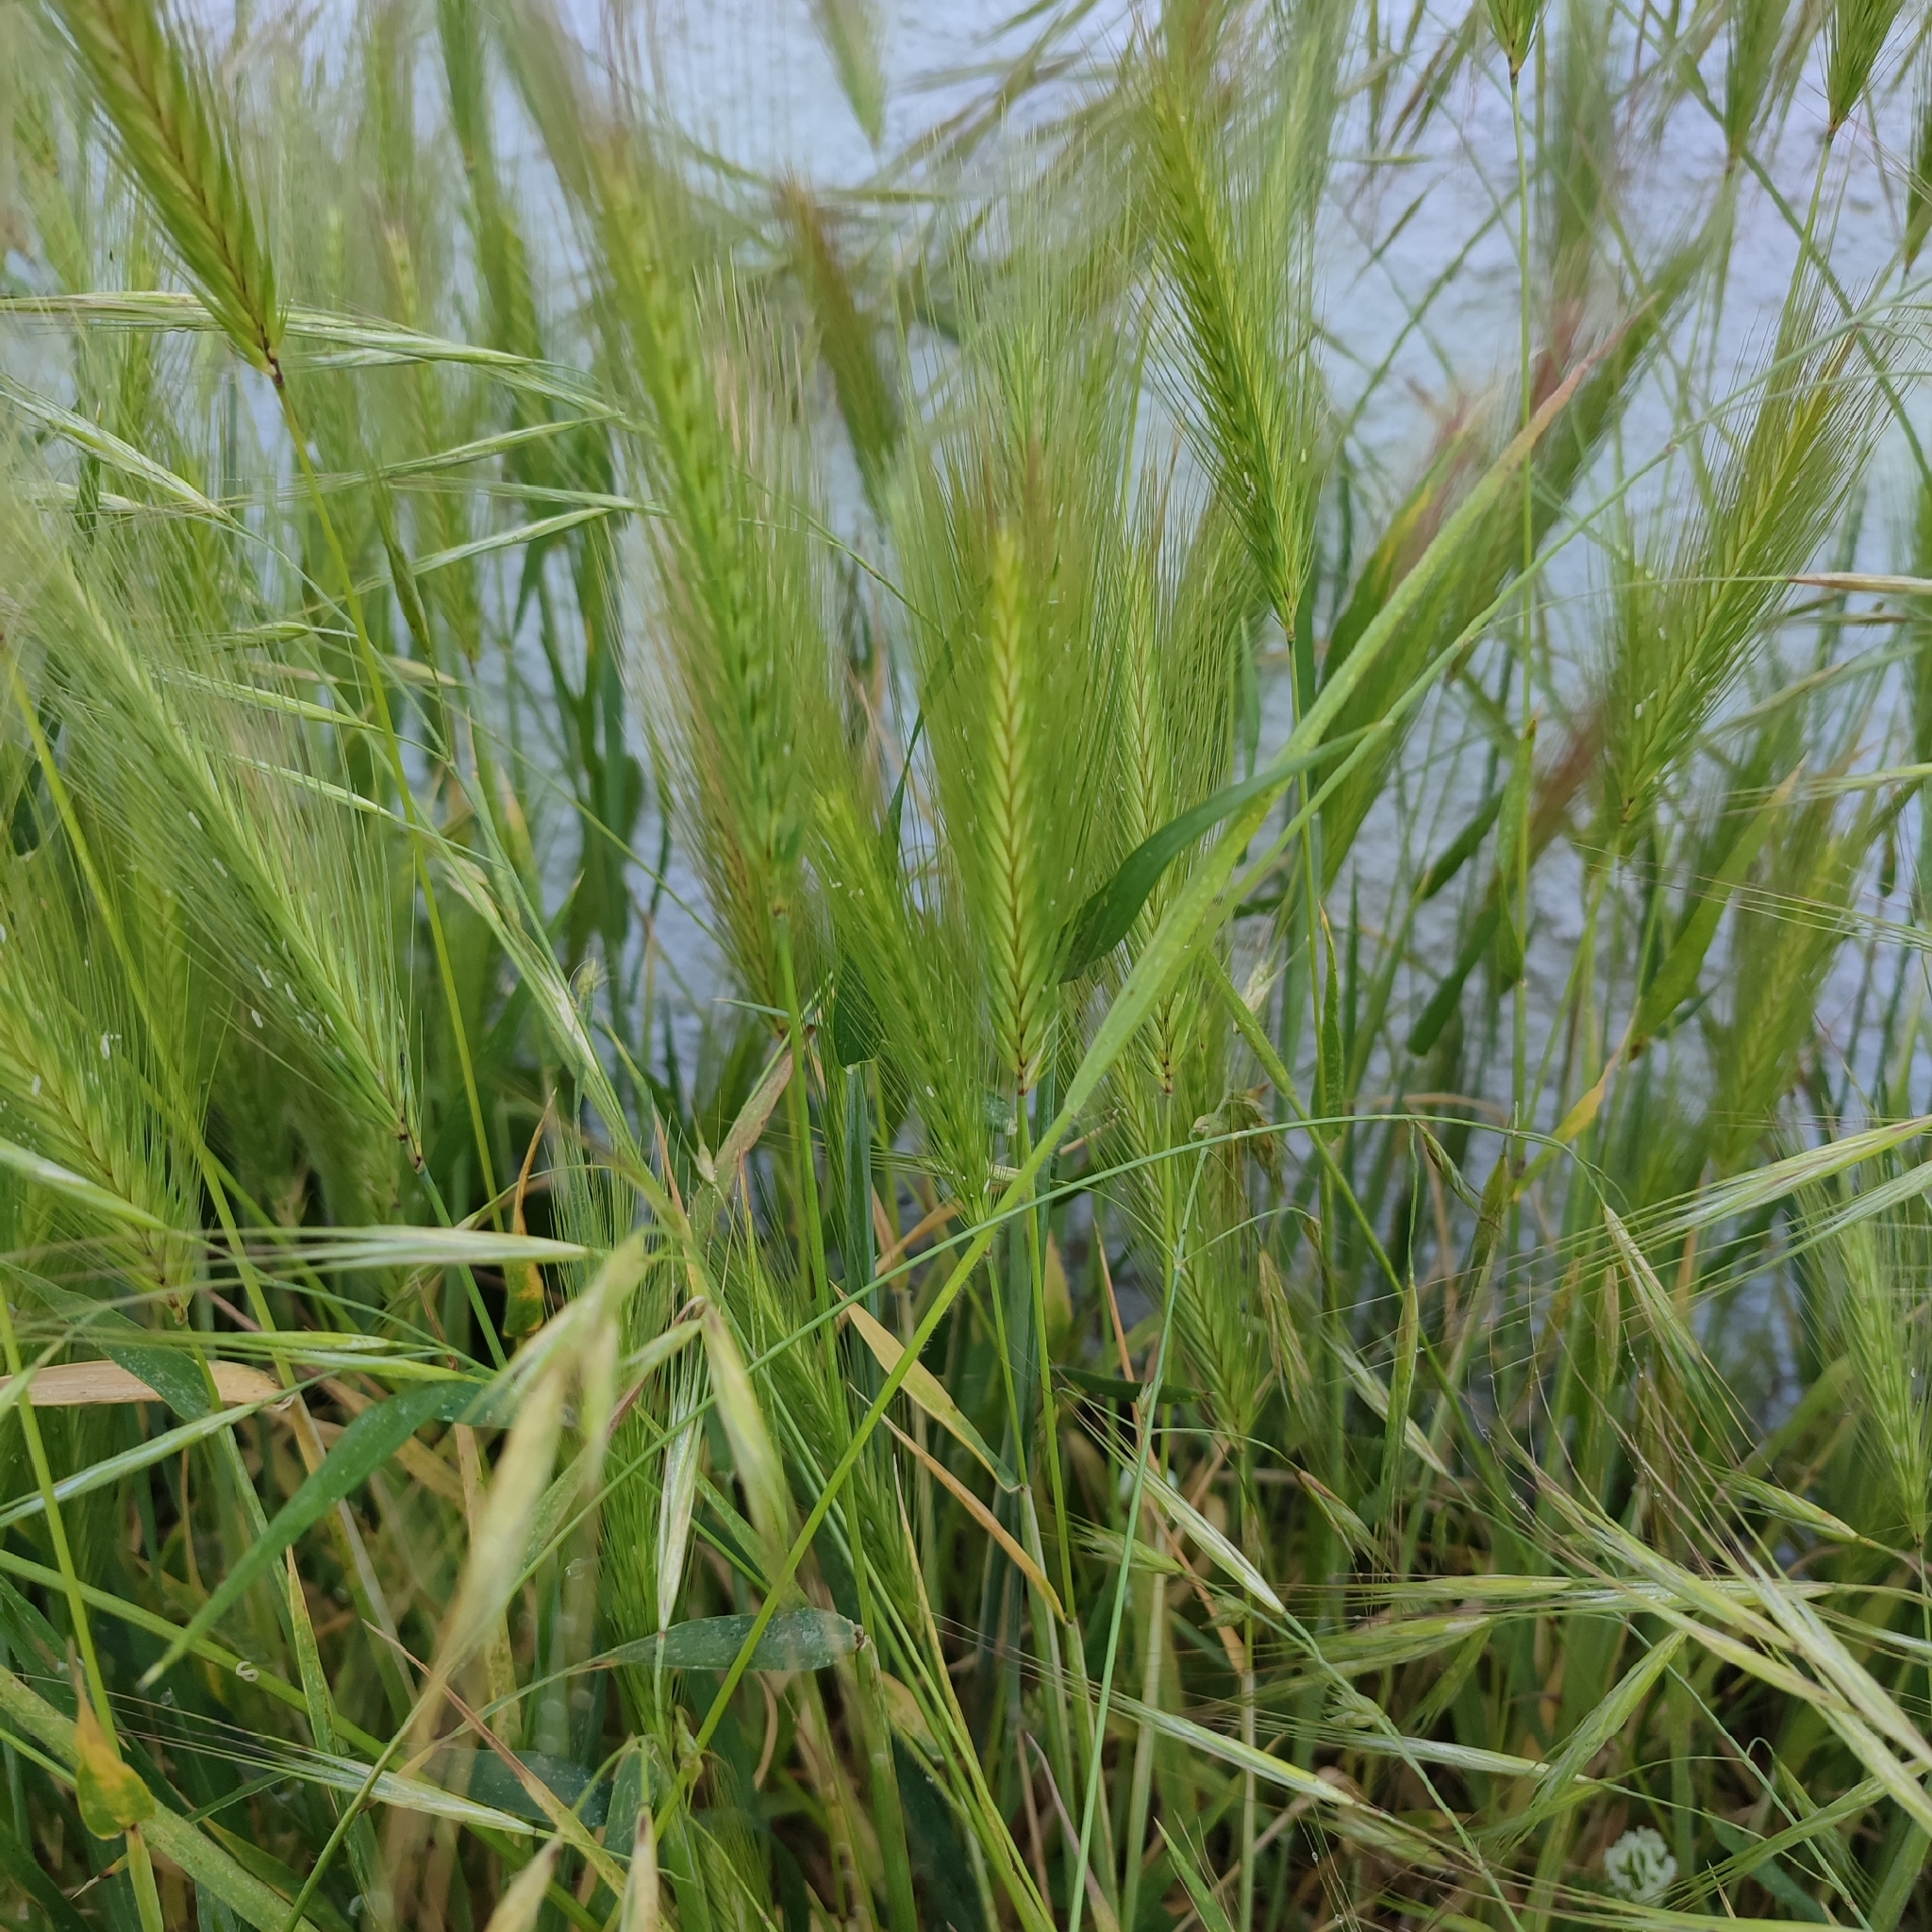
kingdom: Plantae
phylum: Tracheophyta
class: Liliopsida
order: Poales
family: Poaceae
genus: Hordeum
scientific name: Hordeum murinum
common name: Wall barley
